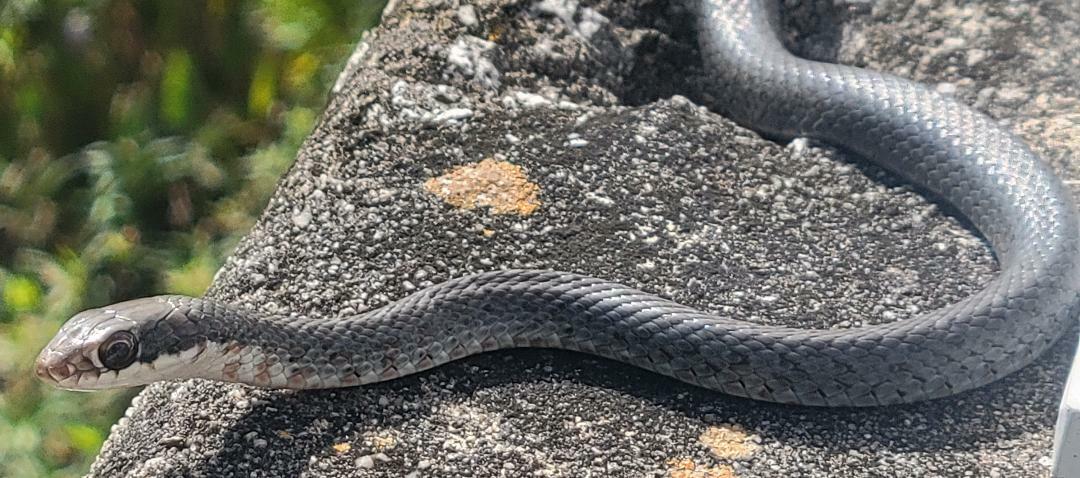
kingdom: Animalia
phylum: Chordata
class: Squamata
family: Colubridae
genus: Coluber
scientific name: Coluber constrictor
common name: Eastern racer
